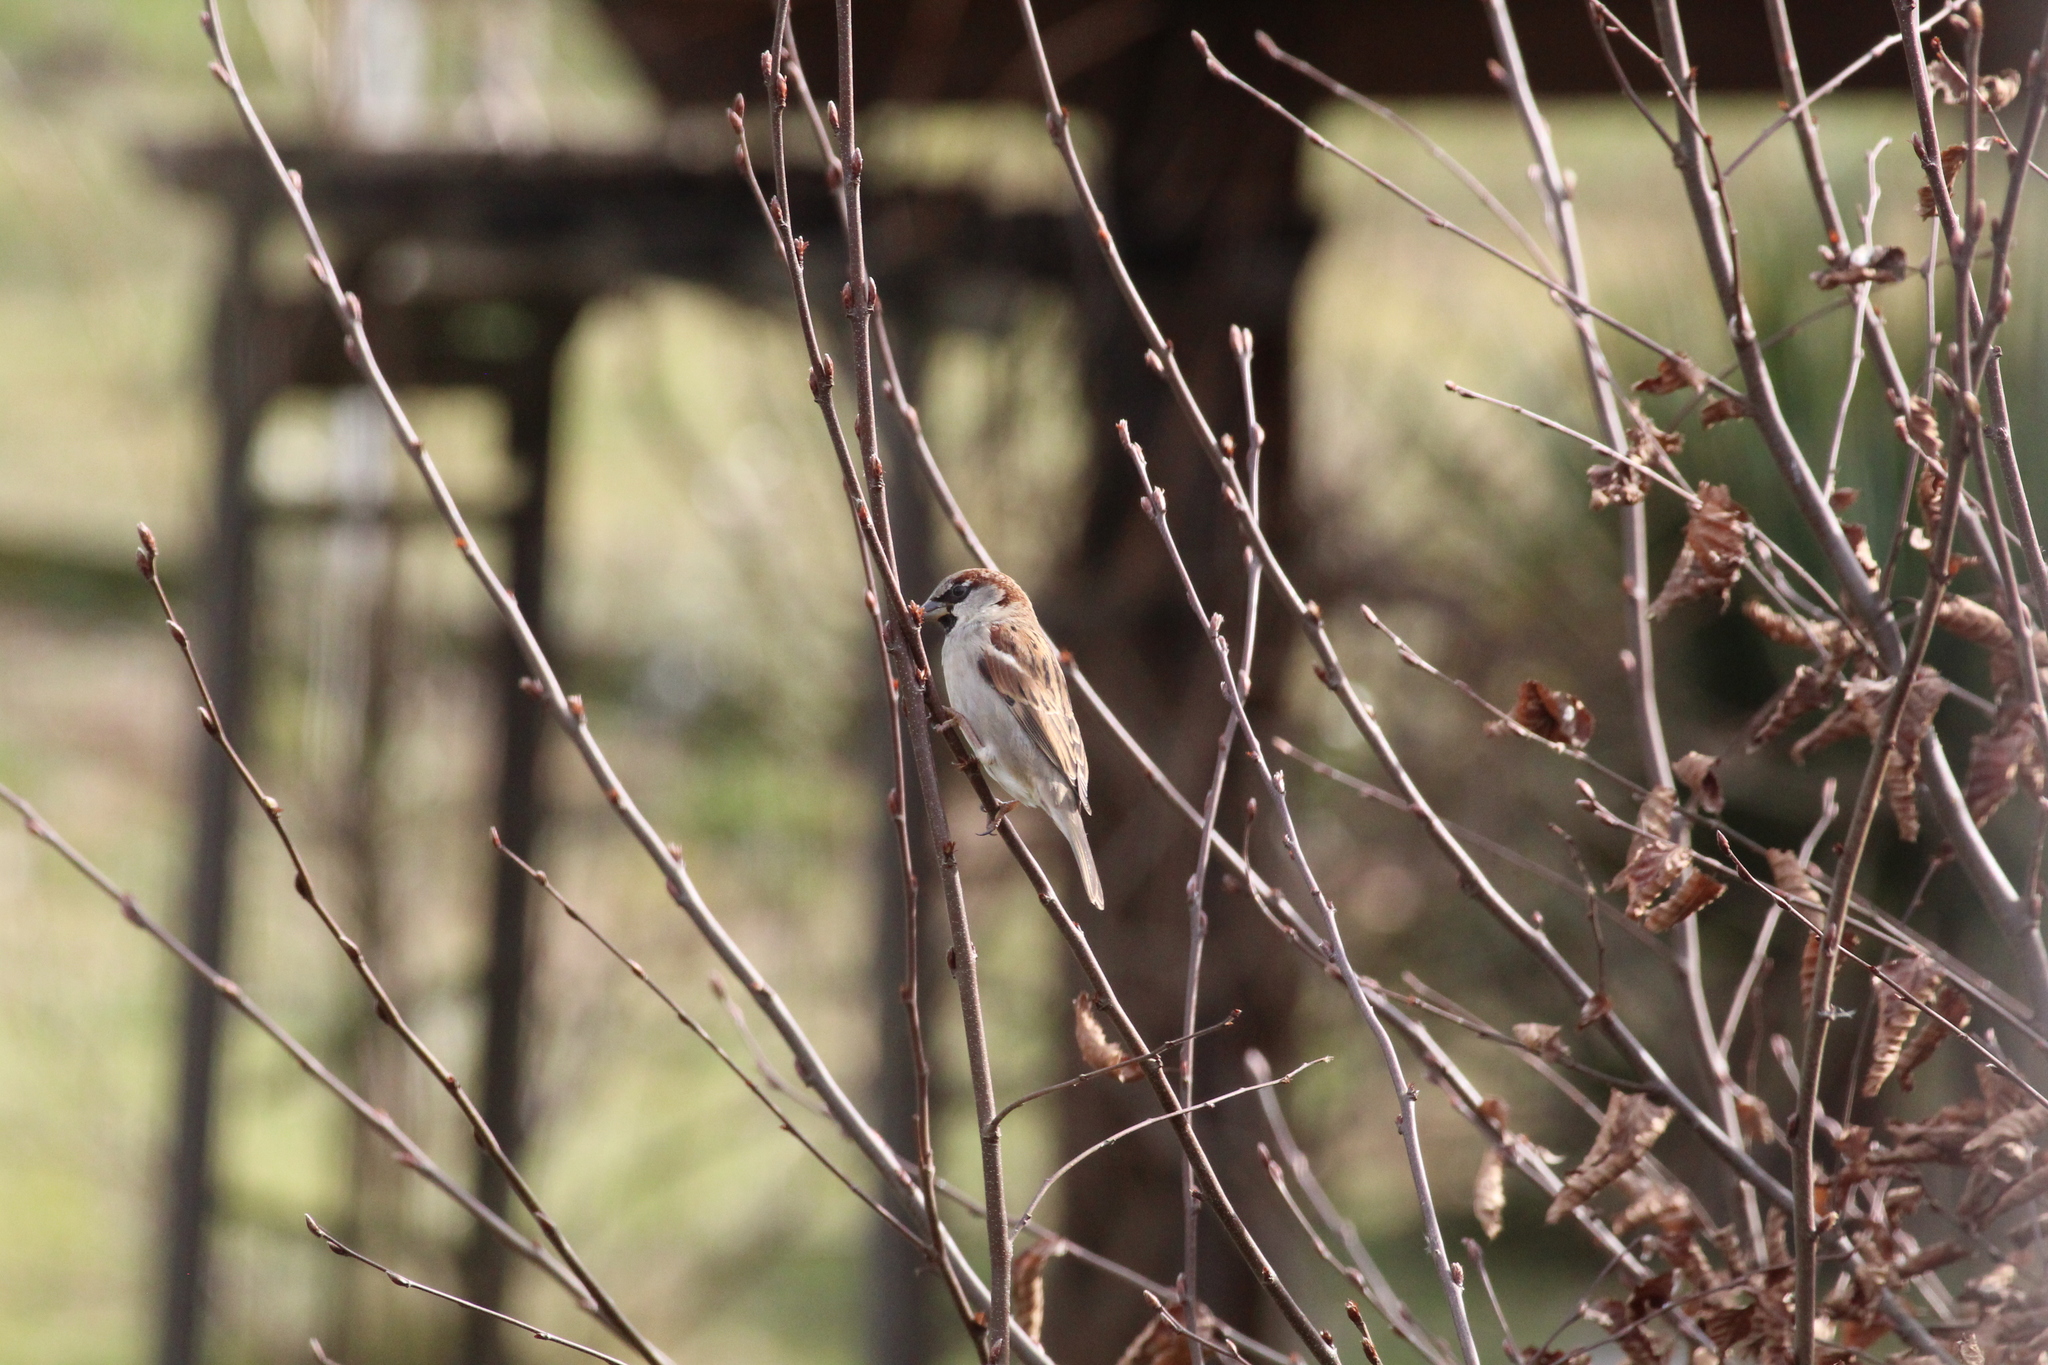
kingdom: Animalia
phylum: Chordata
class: Aves
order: Passeriformes
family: Passeridae
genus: Passer
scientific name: Passer domesticus
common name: House sparrow
